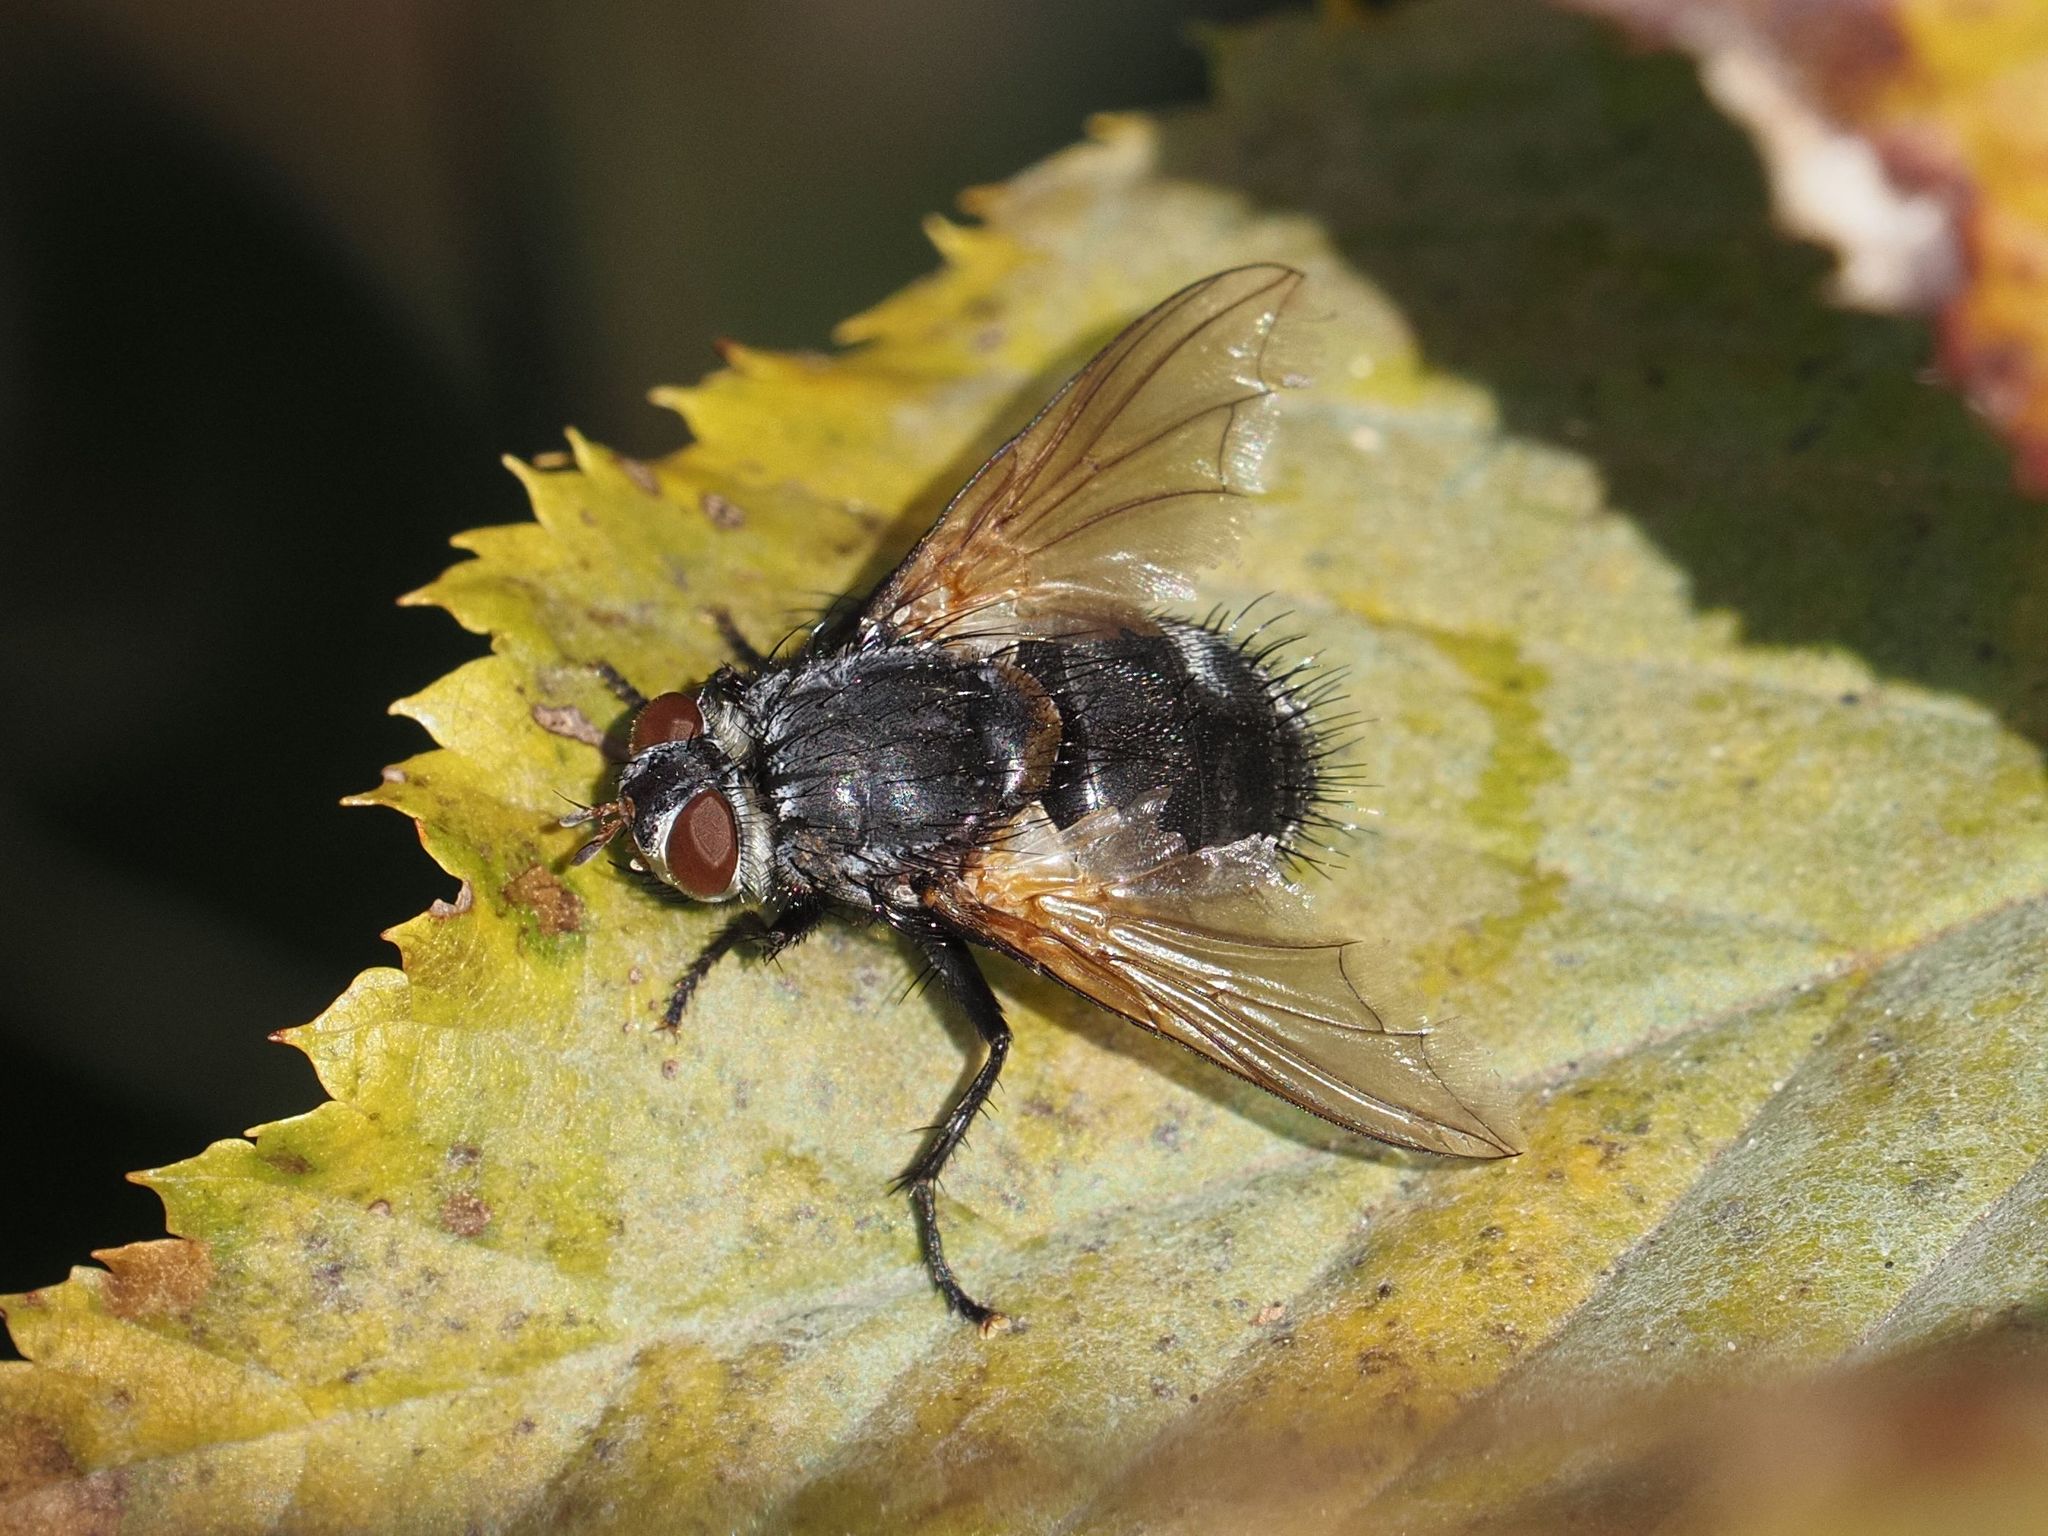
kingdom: Animalia
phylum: Arthropoda
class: Insecta
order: Diptera
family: Tachinidae
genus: Nemoraea
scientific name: Nemoraea pellucida
